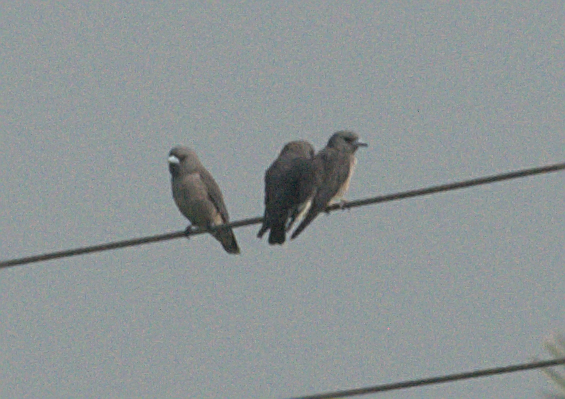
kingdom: Animalia
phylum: Chordata
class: Aves
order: Passeriformes
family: Artamidae
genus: Artamus
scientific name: Artamus fuscus
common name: Ashy woodswallow
